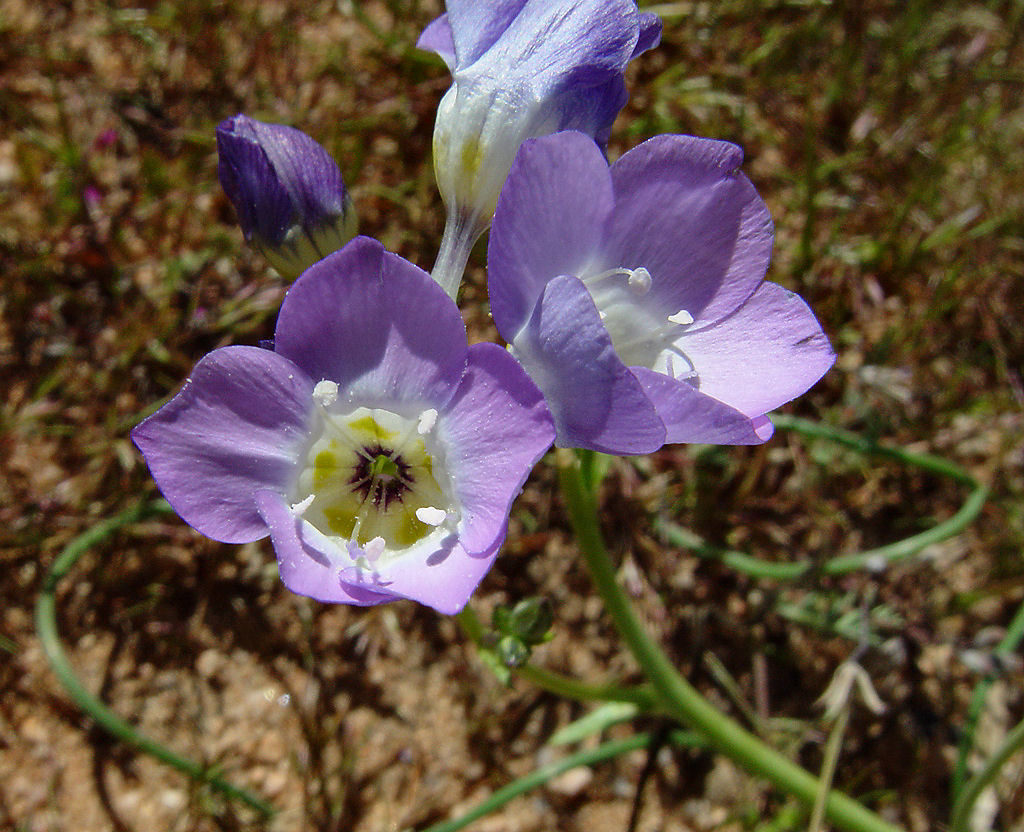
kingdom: Plantae
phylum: Tracheophyta
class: Magnoliopsida
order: Ericales
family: Polemoniaceae
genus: Gilia
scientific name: Gilia latiflora
